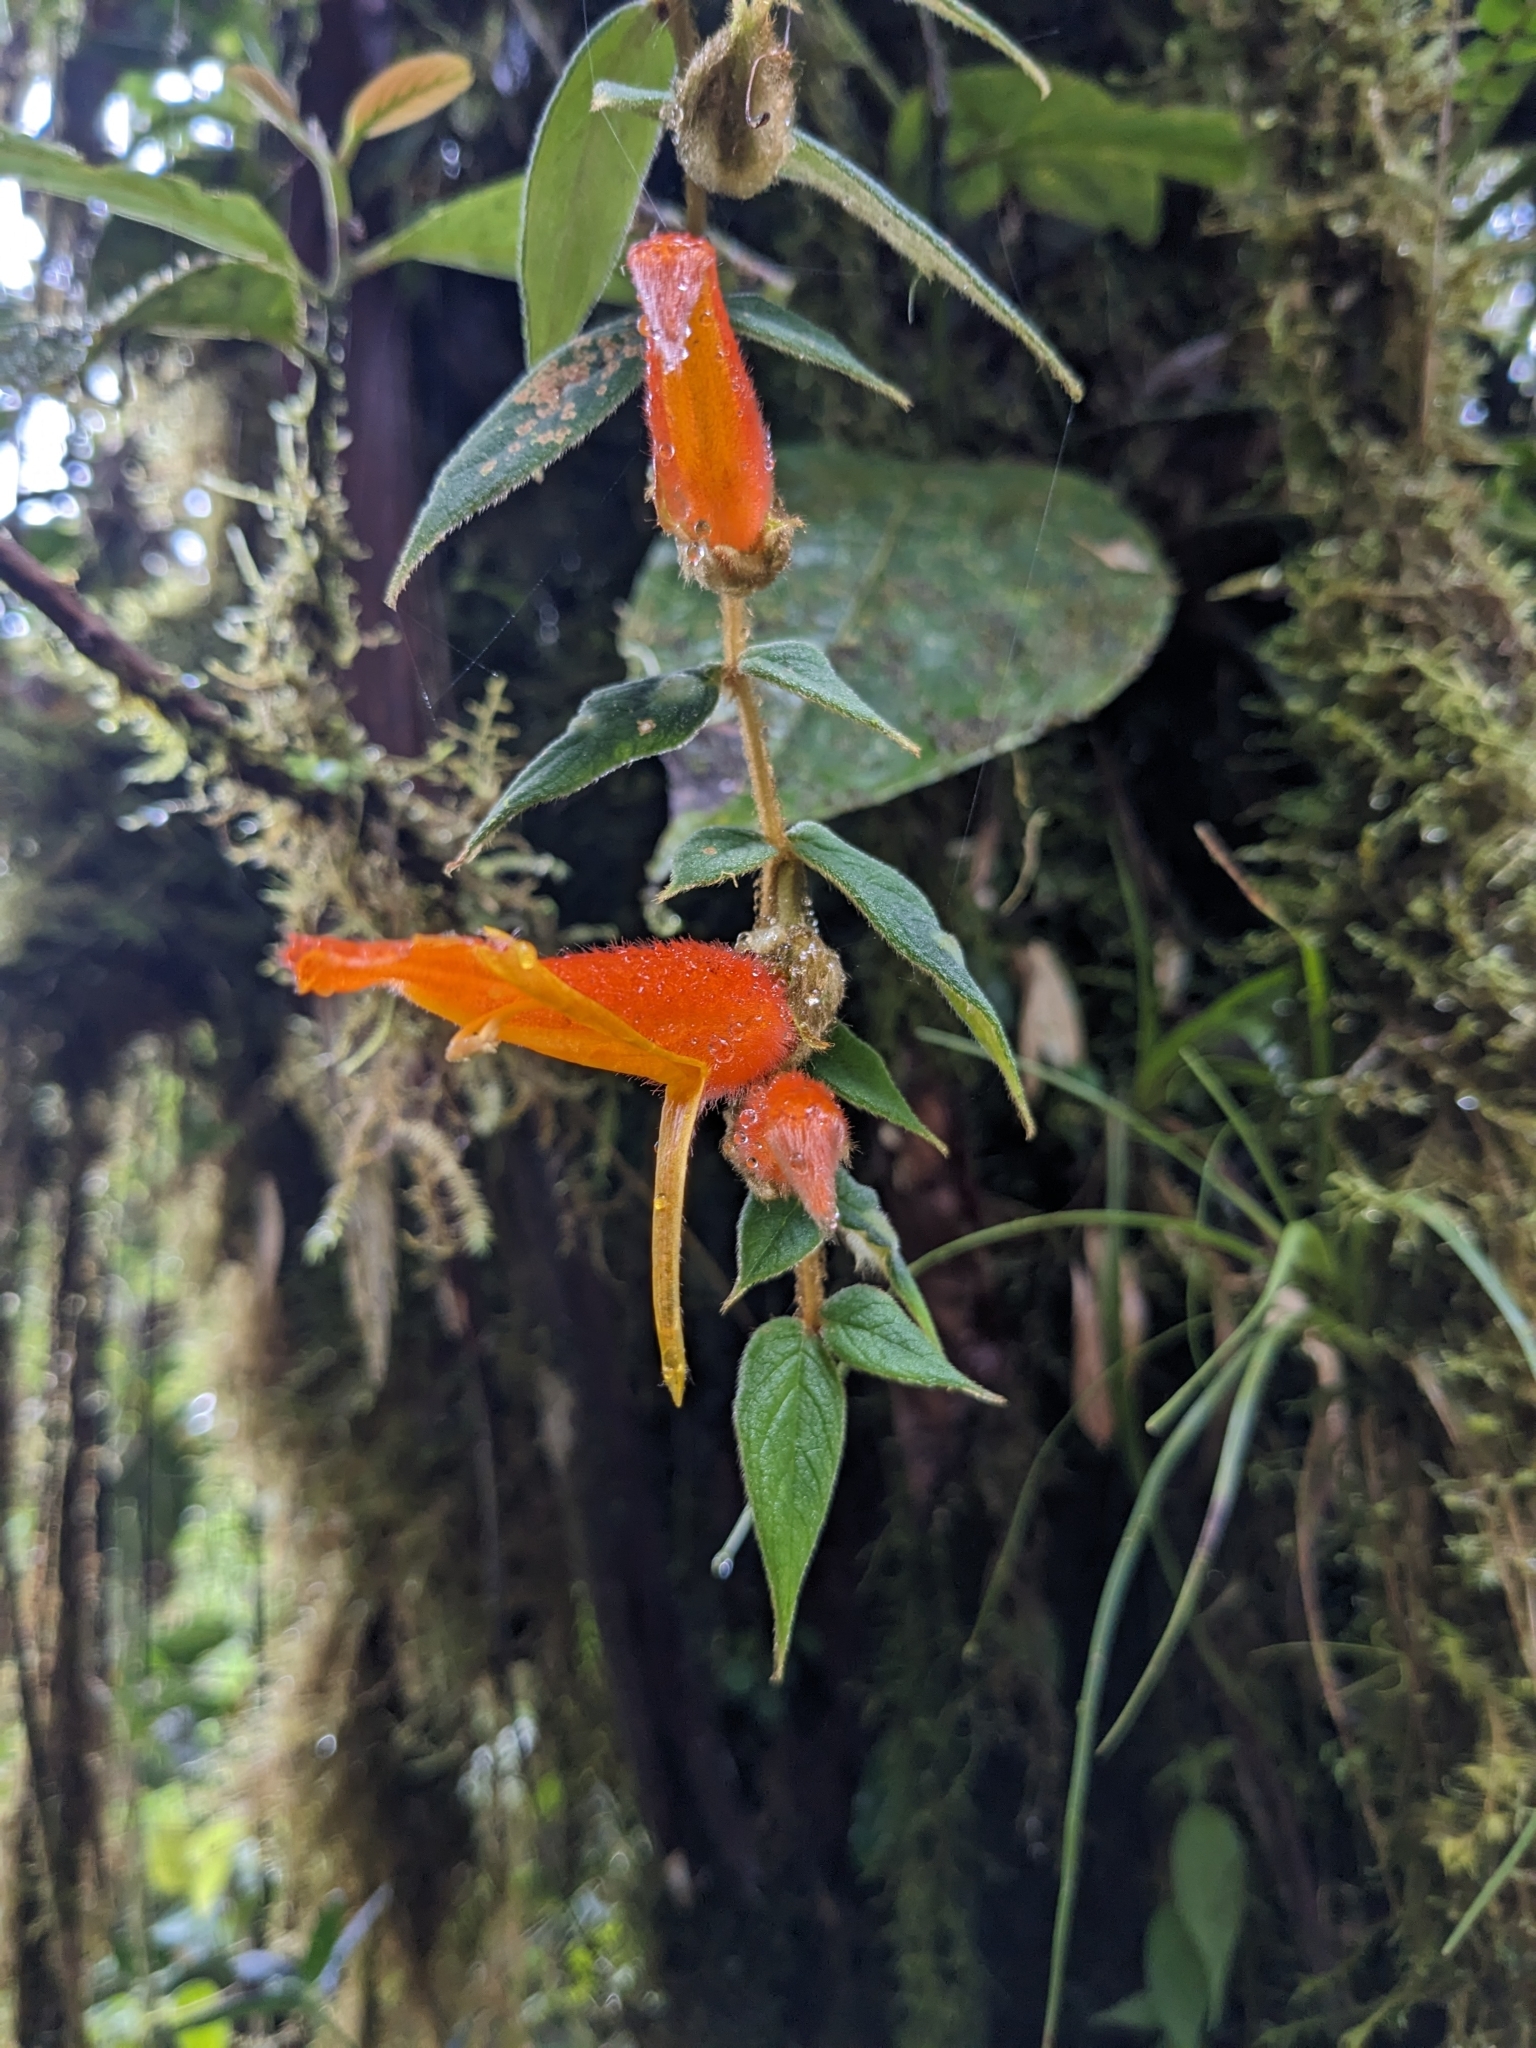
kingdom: Plantae
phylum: Tracheophyta
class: Magnoliopsida
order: Lamiales
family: Gesneriaceae
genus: Columnea
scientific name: Columnea pendens
